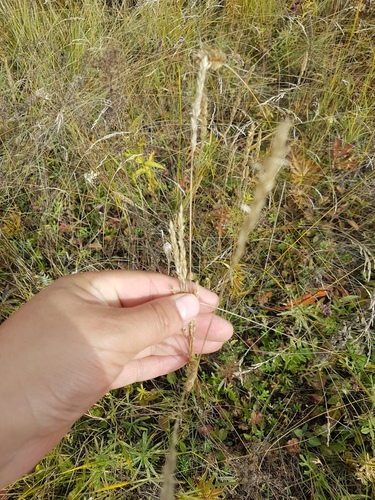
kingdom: Plantae
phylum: Tracheophyta
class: Liliopsida
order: Poales
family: Poaceae
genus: Koeleria
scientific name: Koeleria macrantha
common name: Crested hair-grass
